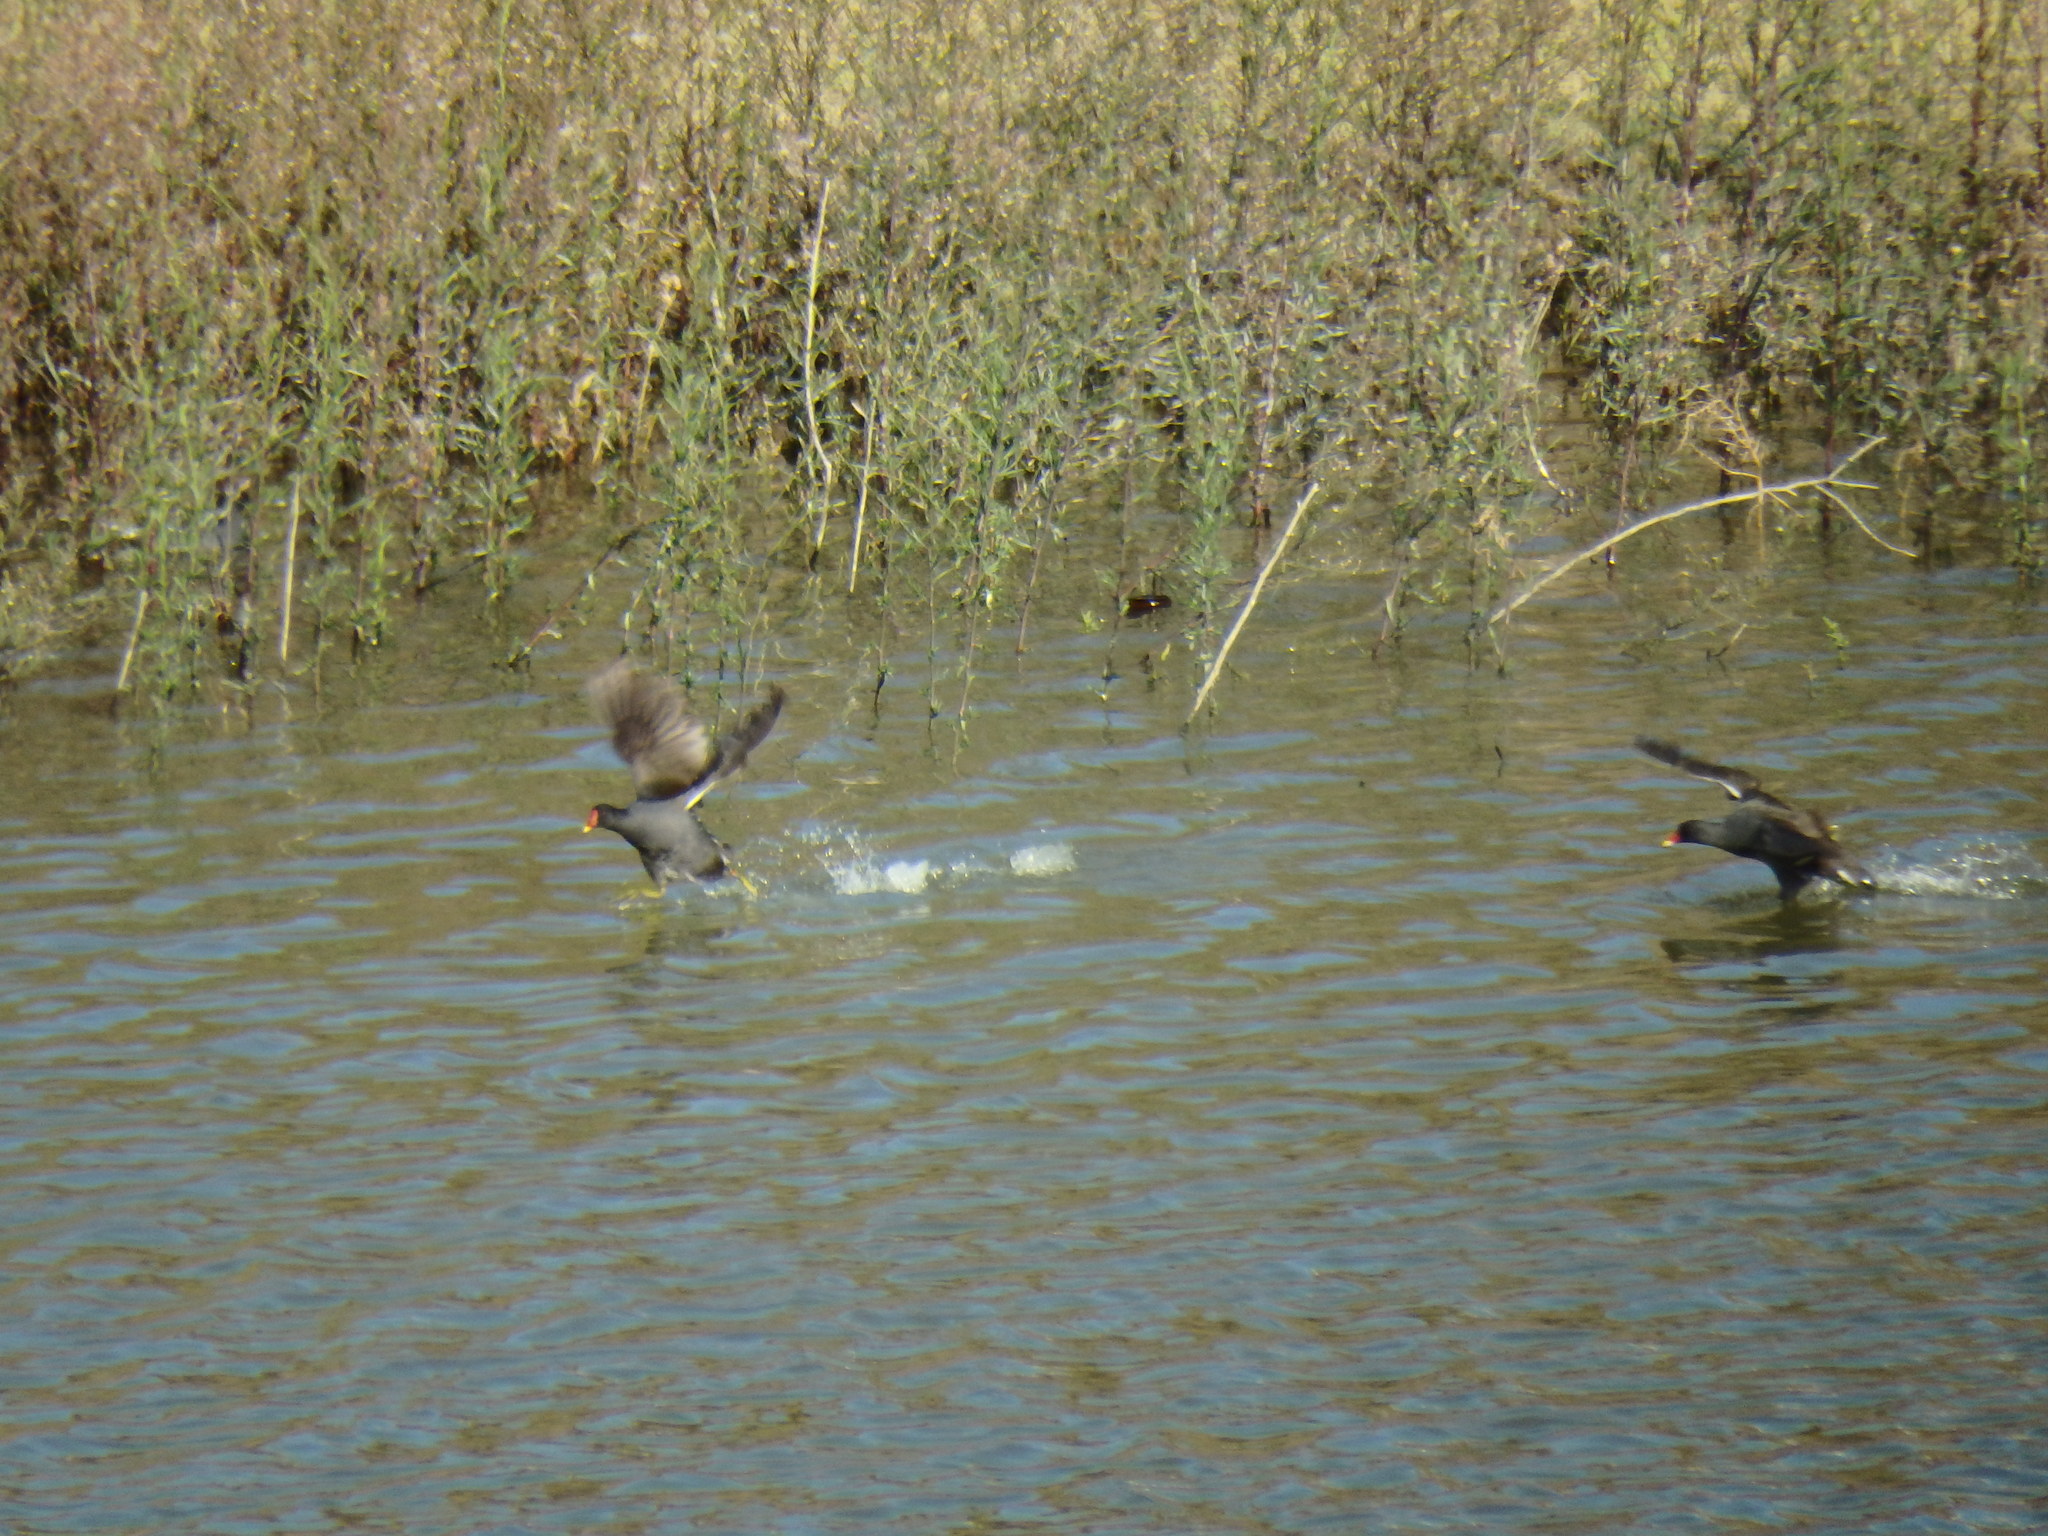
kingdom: Animalia
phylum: Chordata
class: Aves
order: Gruiformes
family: Rallidae
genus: Gallinula
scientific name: Gallinula chloropus
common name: Common moorhen
